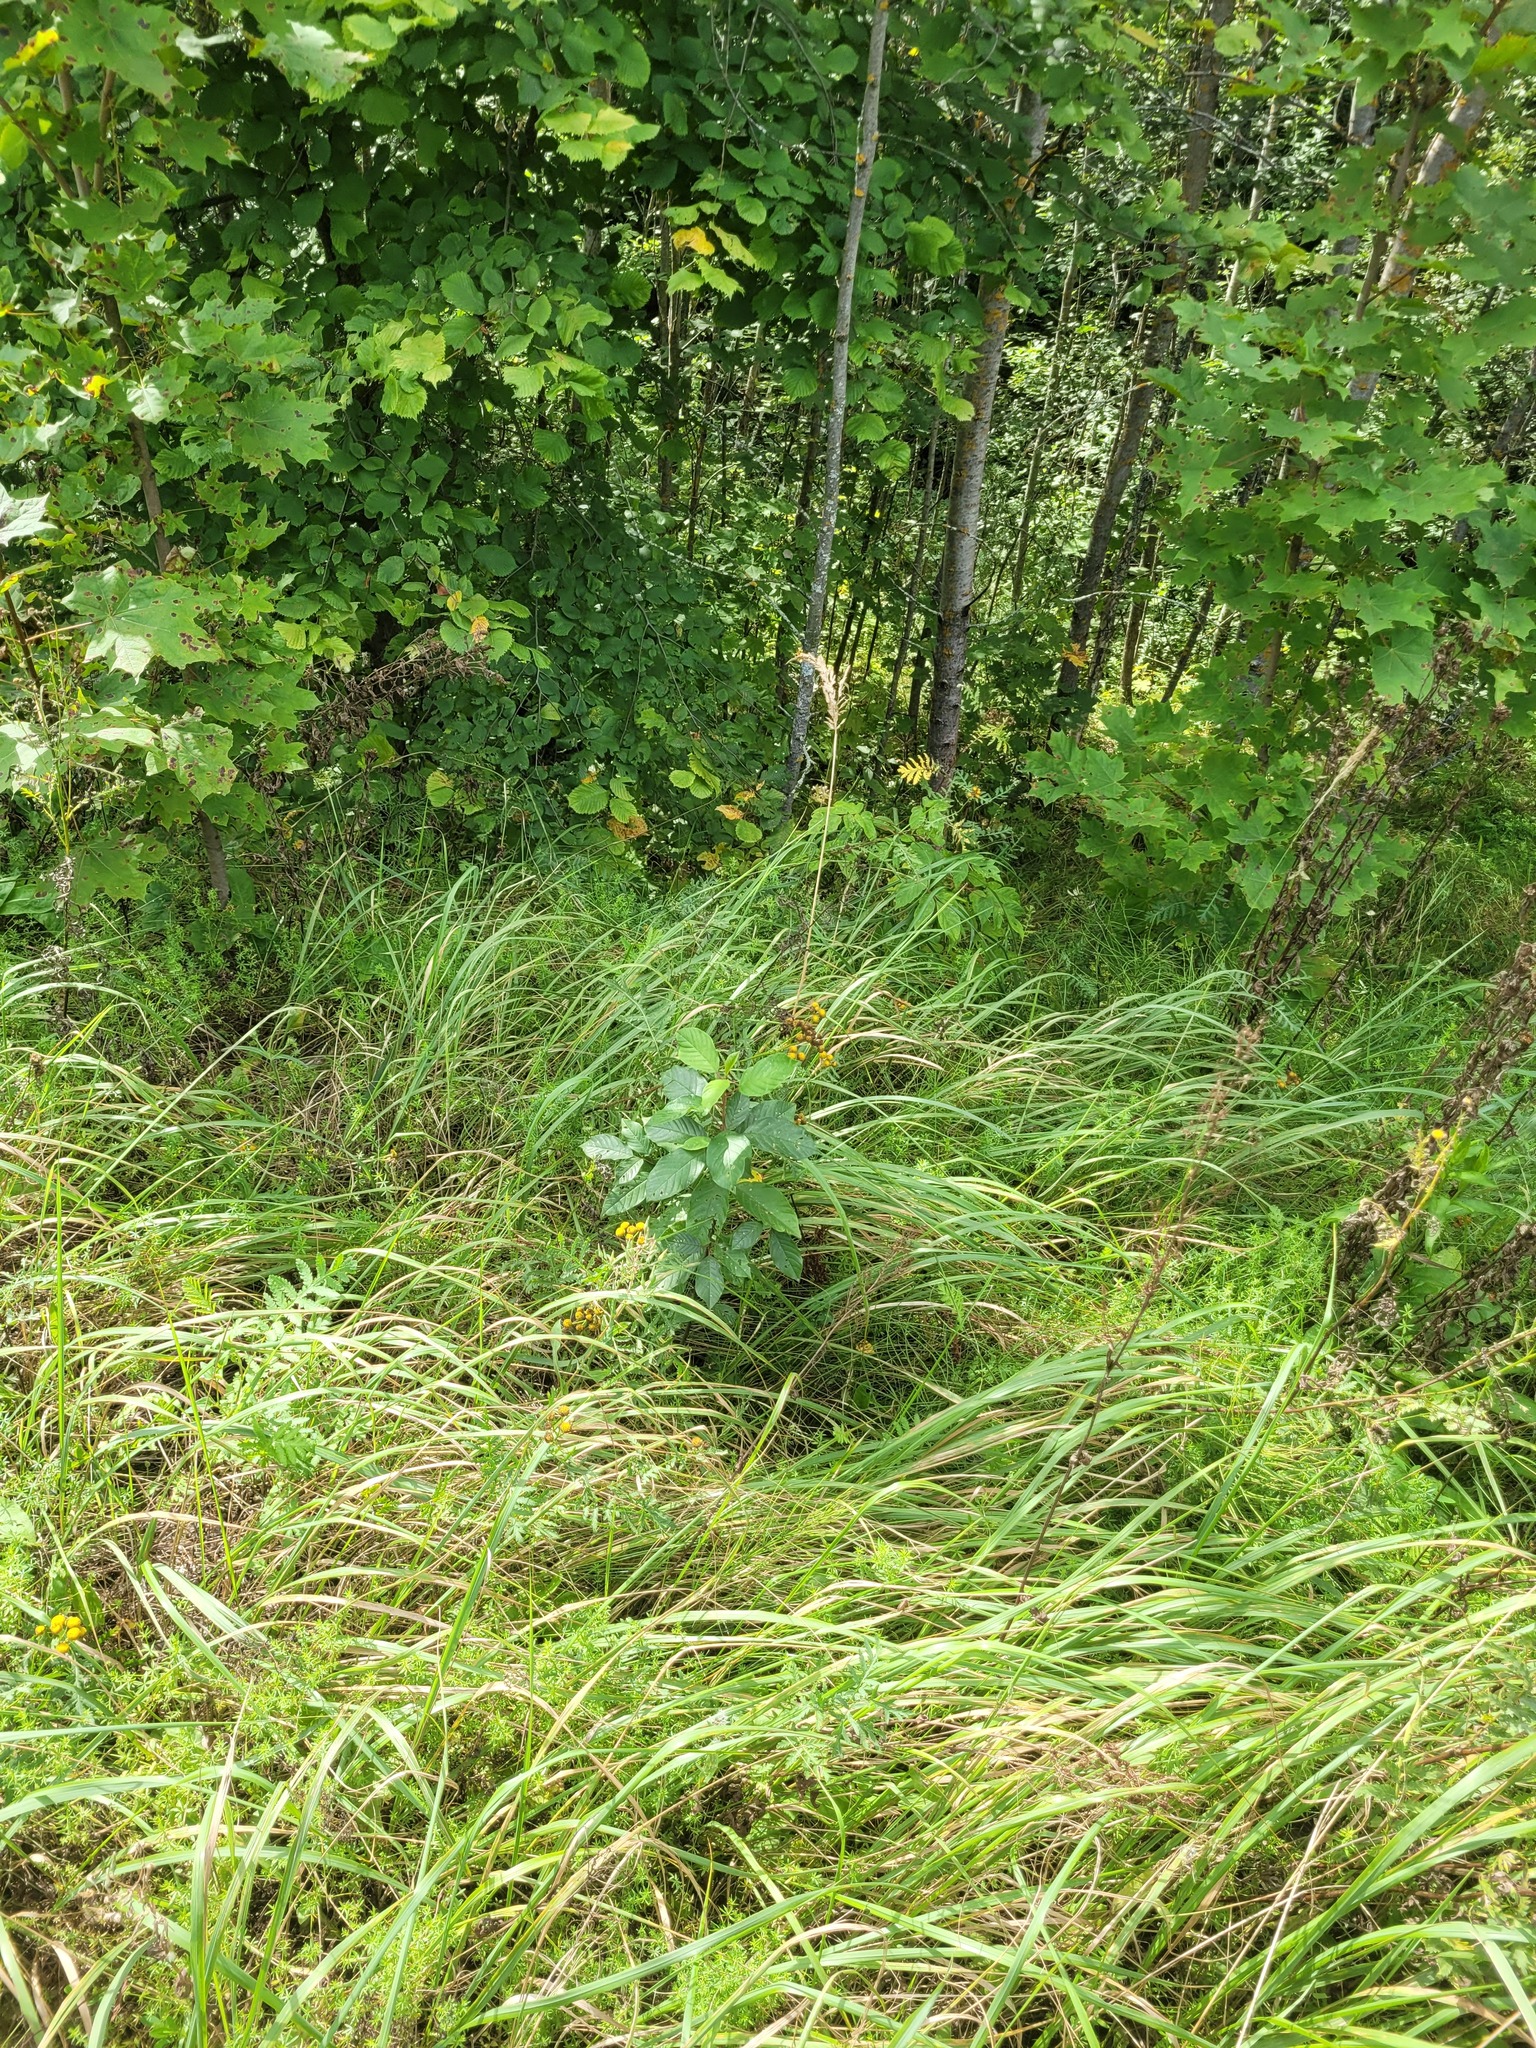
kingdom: Plantae
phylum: Tracheophyta
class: Magnoliopsida
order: Rosales
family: Rhamnaceae
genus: Frangula
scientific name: Frangula alnus
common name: Alder buckthorn
